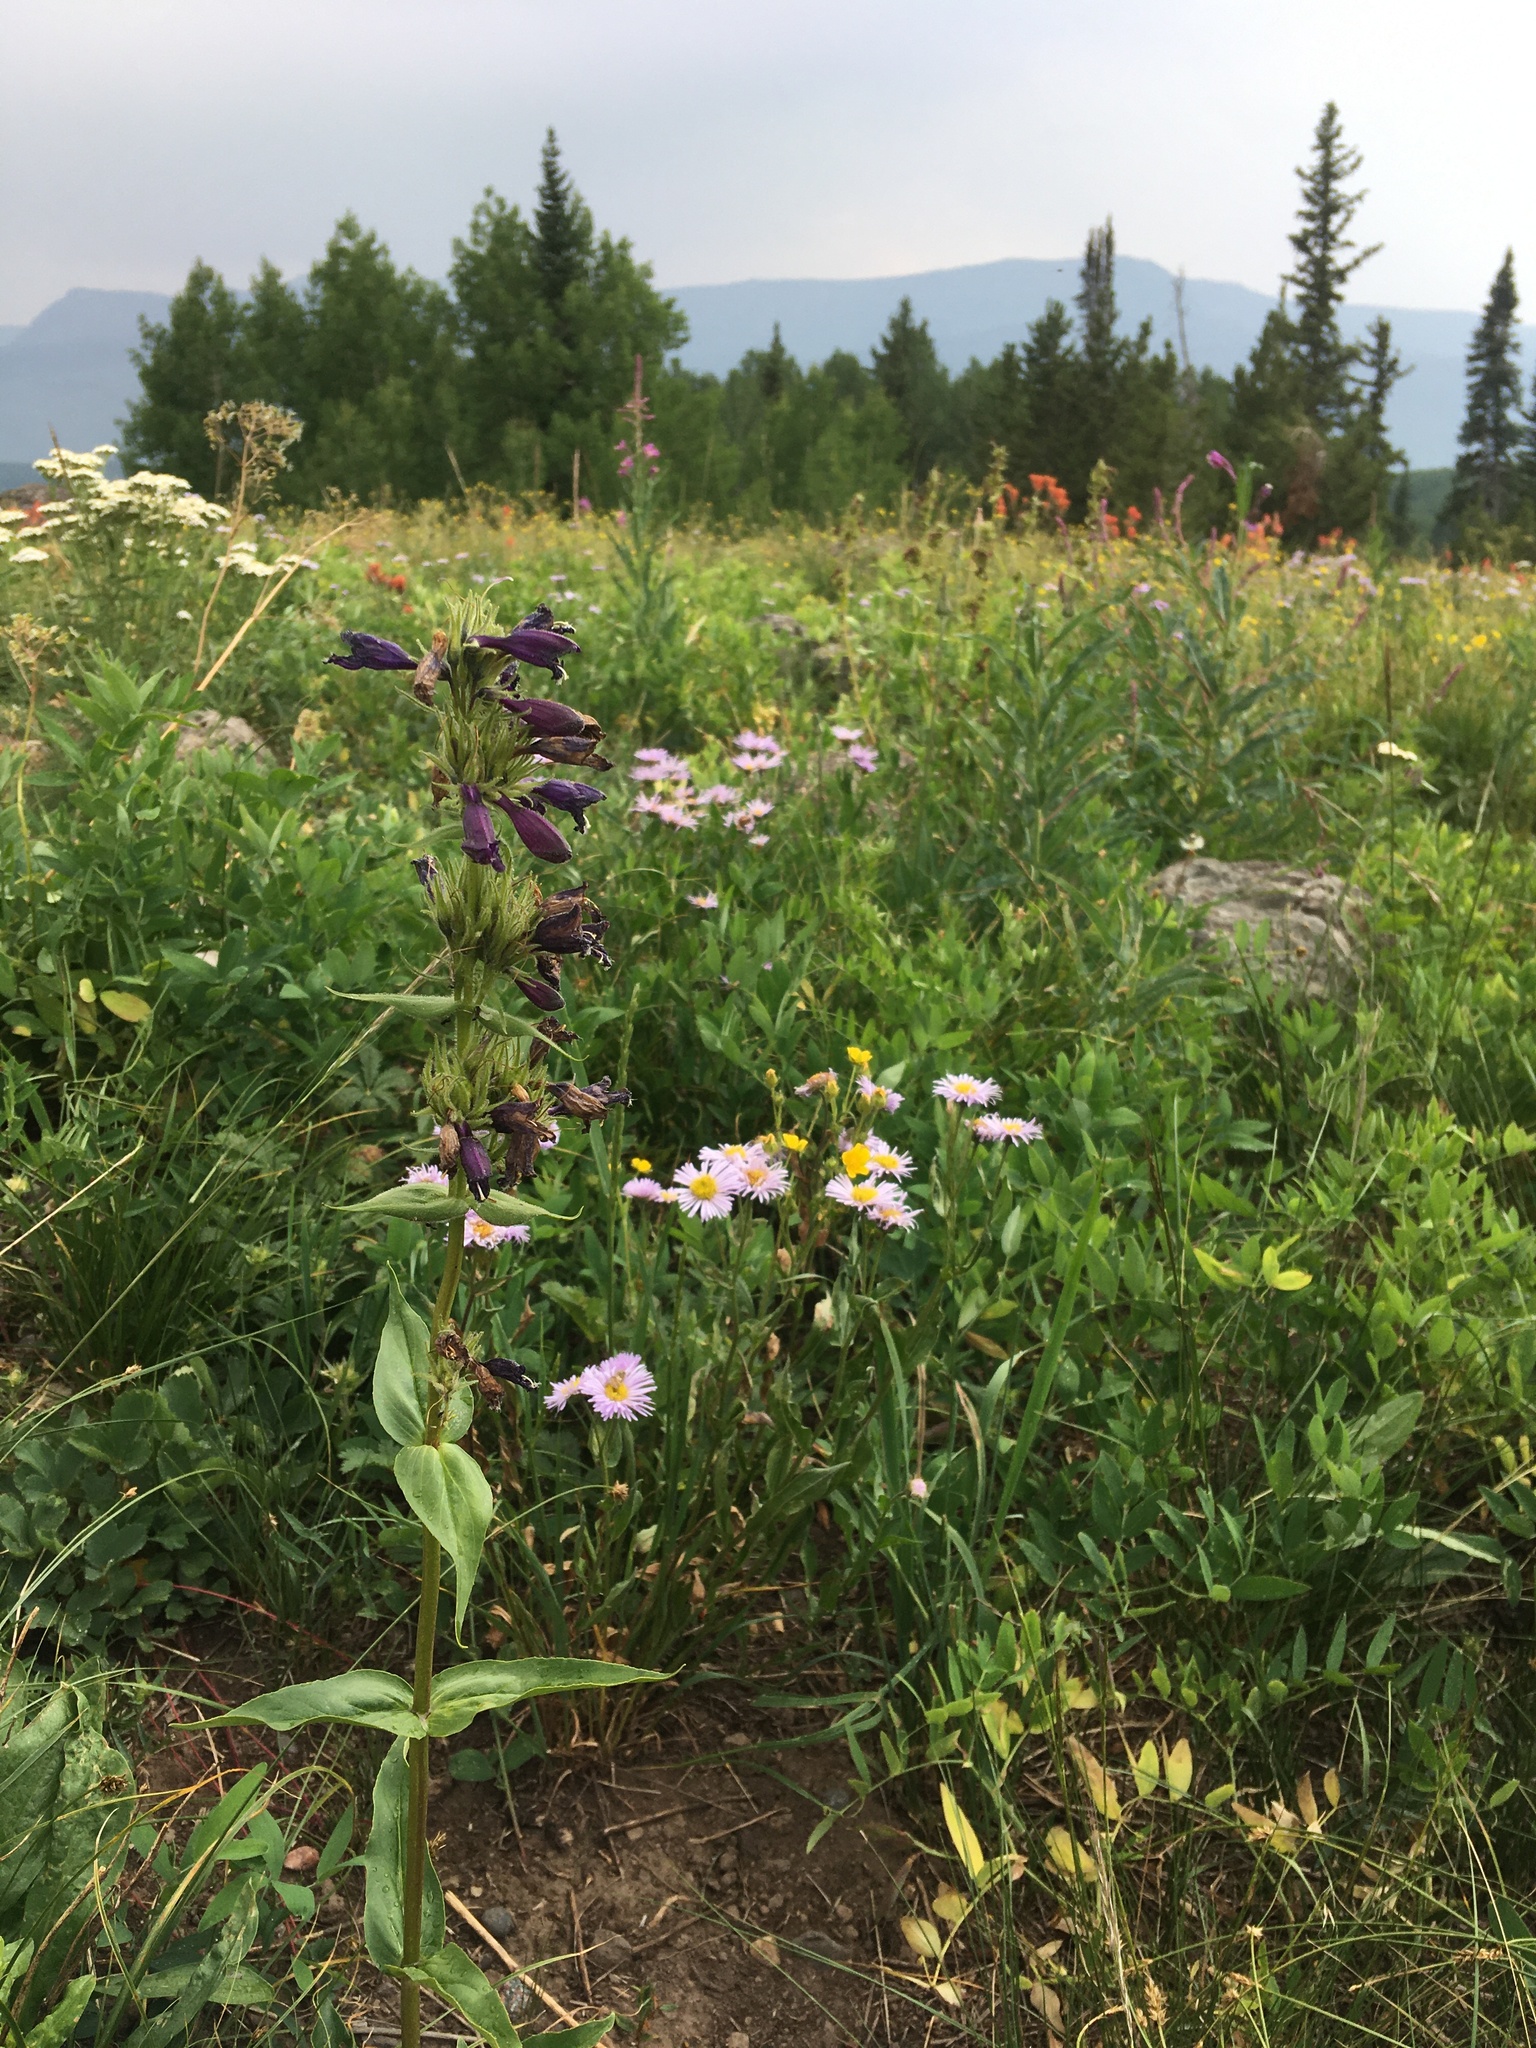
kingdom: Plantae
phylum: Tracheophyta
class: Magnoliopsida
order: Lamiales
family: Plantaginaceae
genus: Penstemon
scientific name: Penstemon whippleanus
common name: Whipple's penstemon
